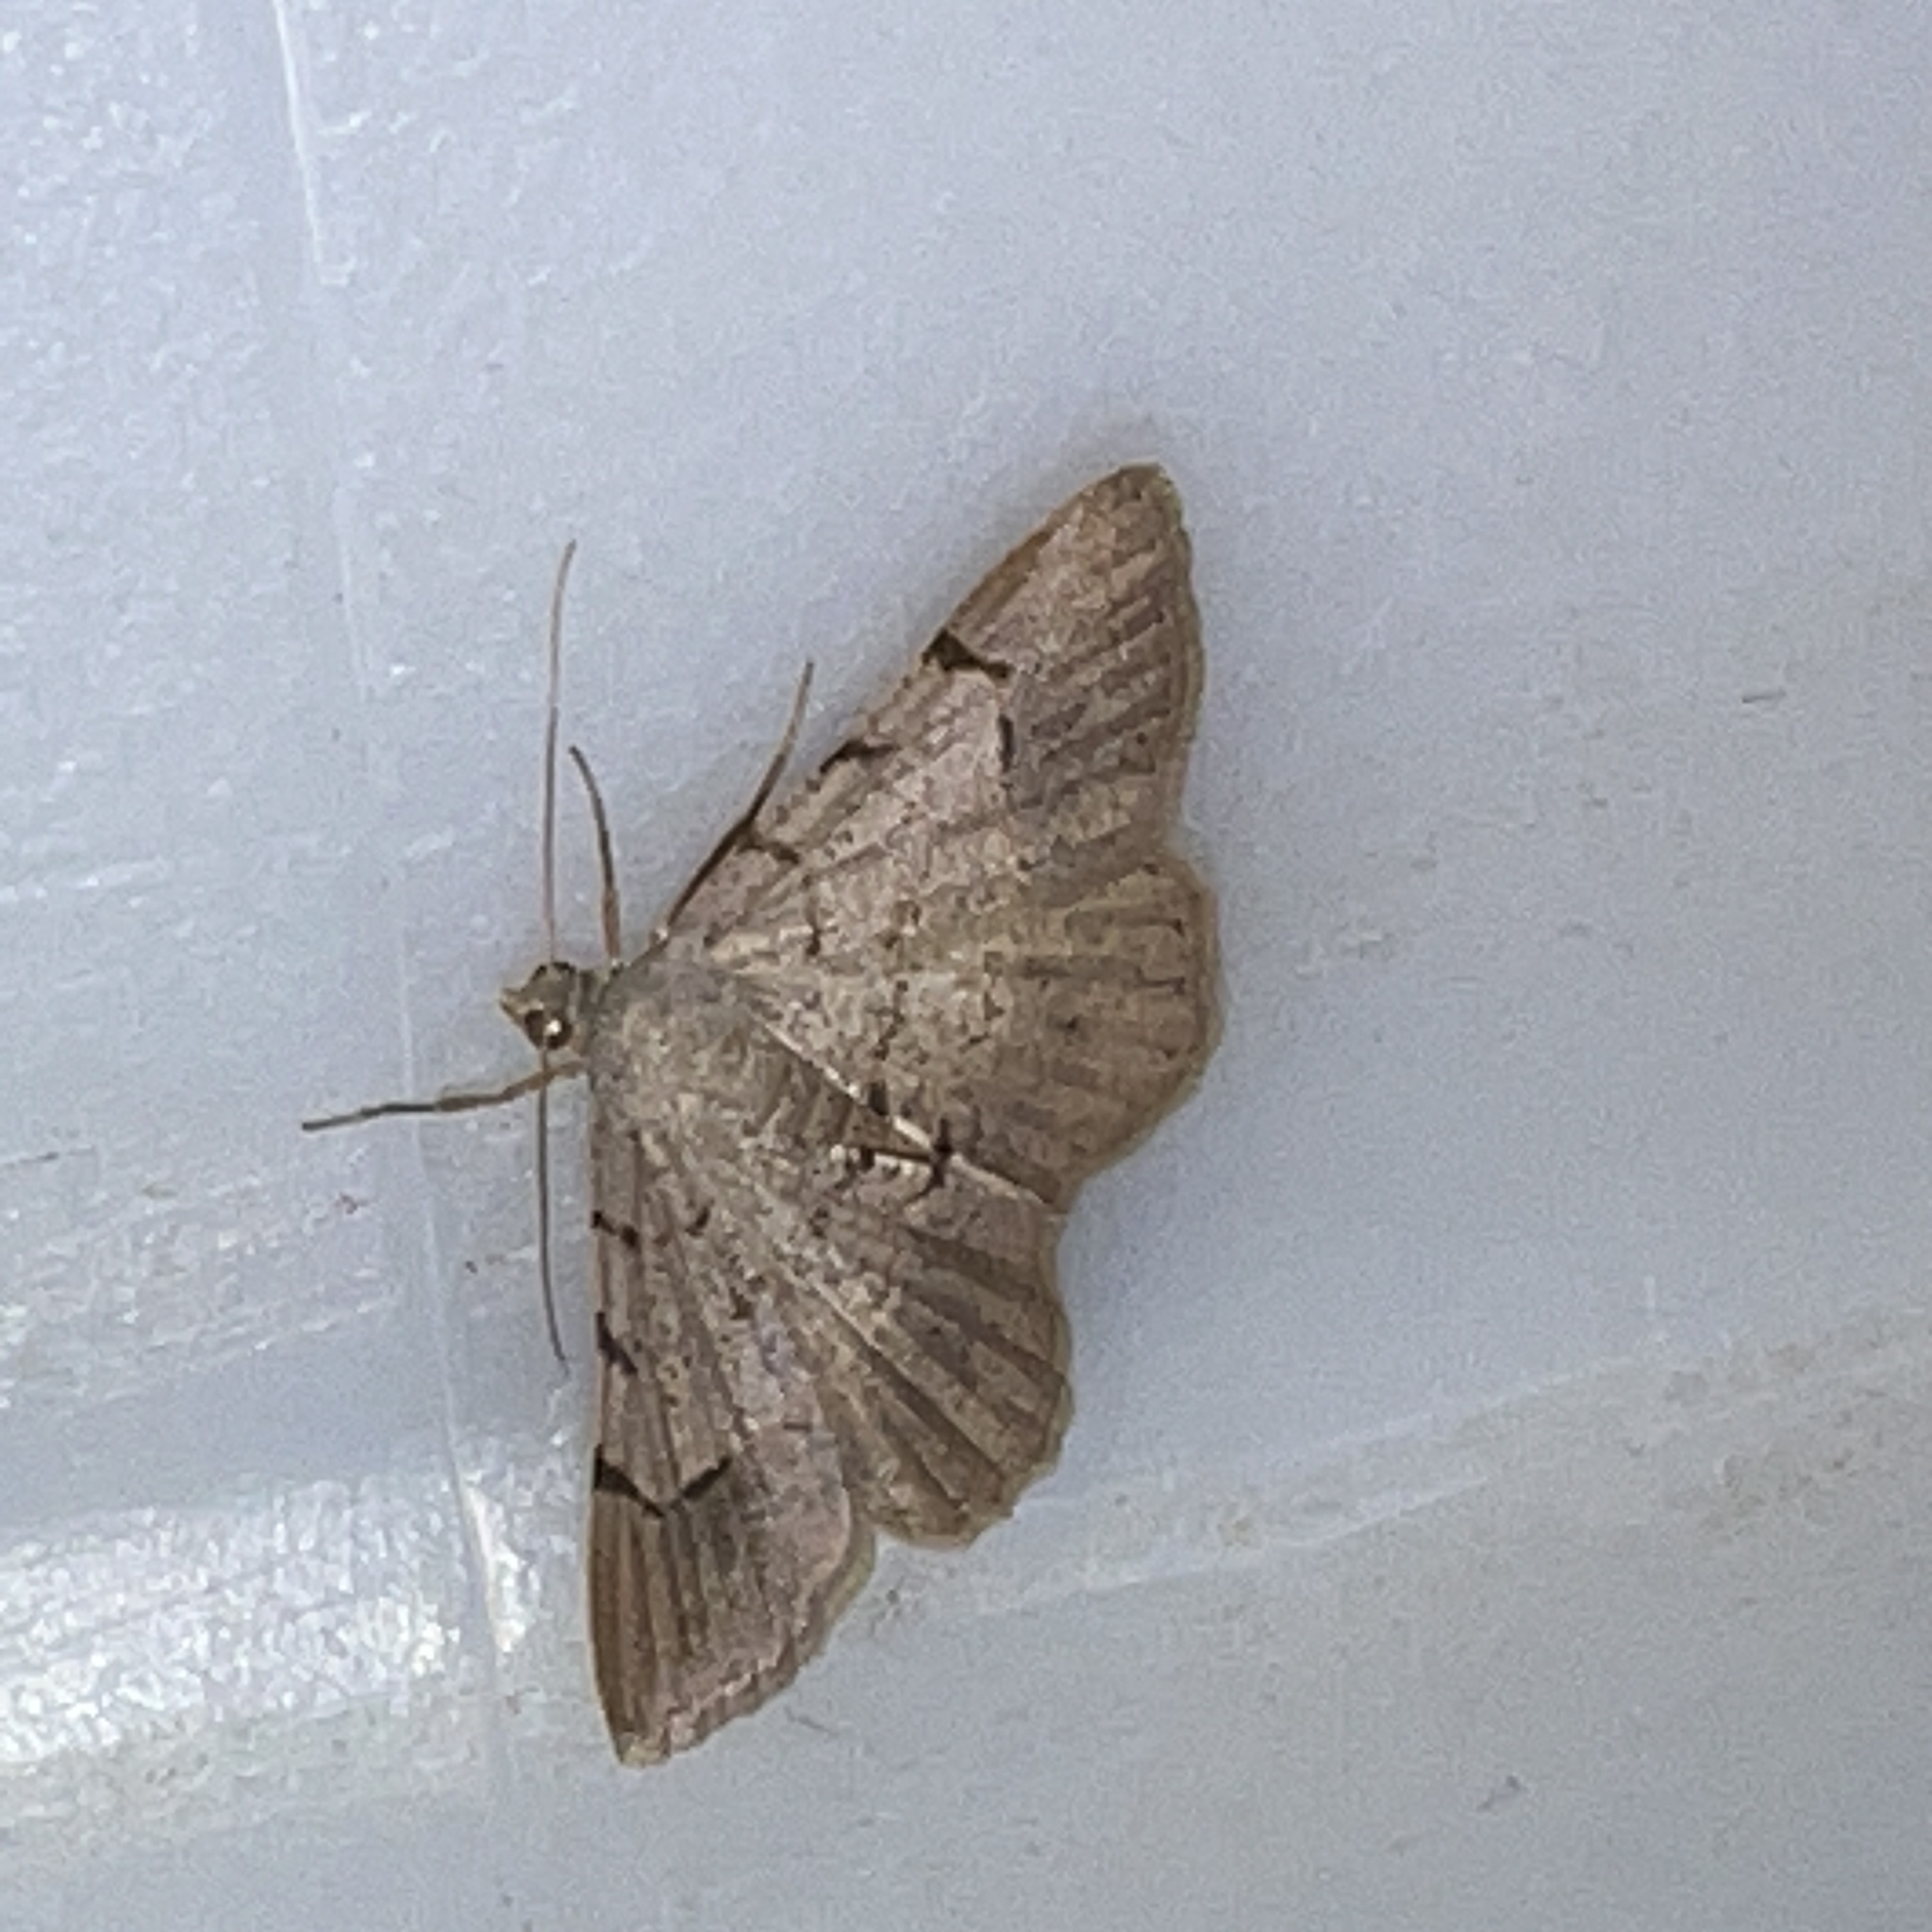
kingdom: Animalia
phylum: Arthropoda
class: Insecta
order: Lepidoptera
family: Geometridae
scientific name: Geometridae
